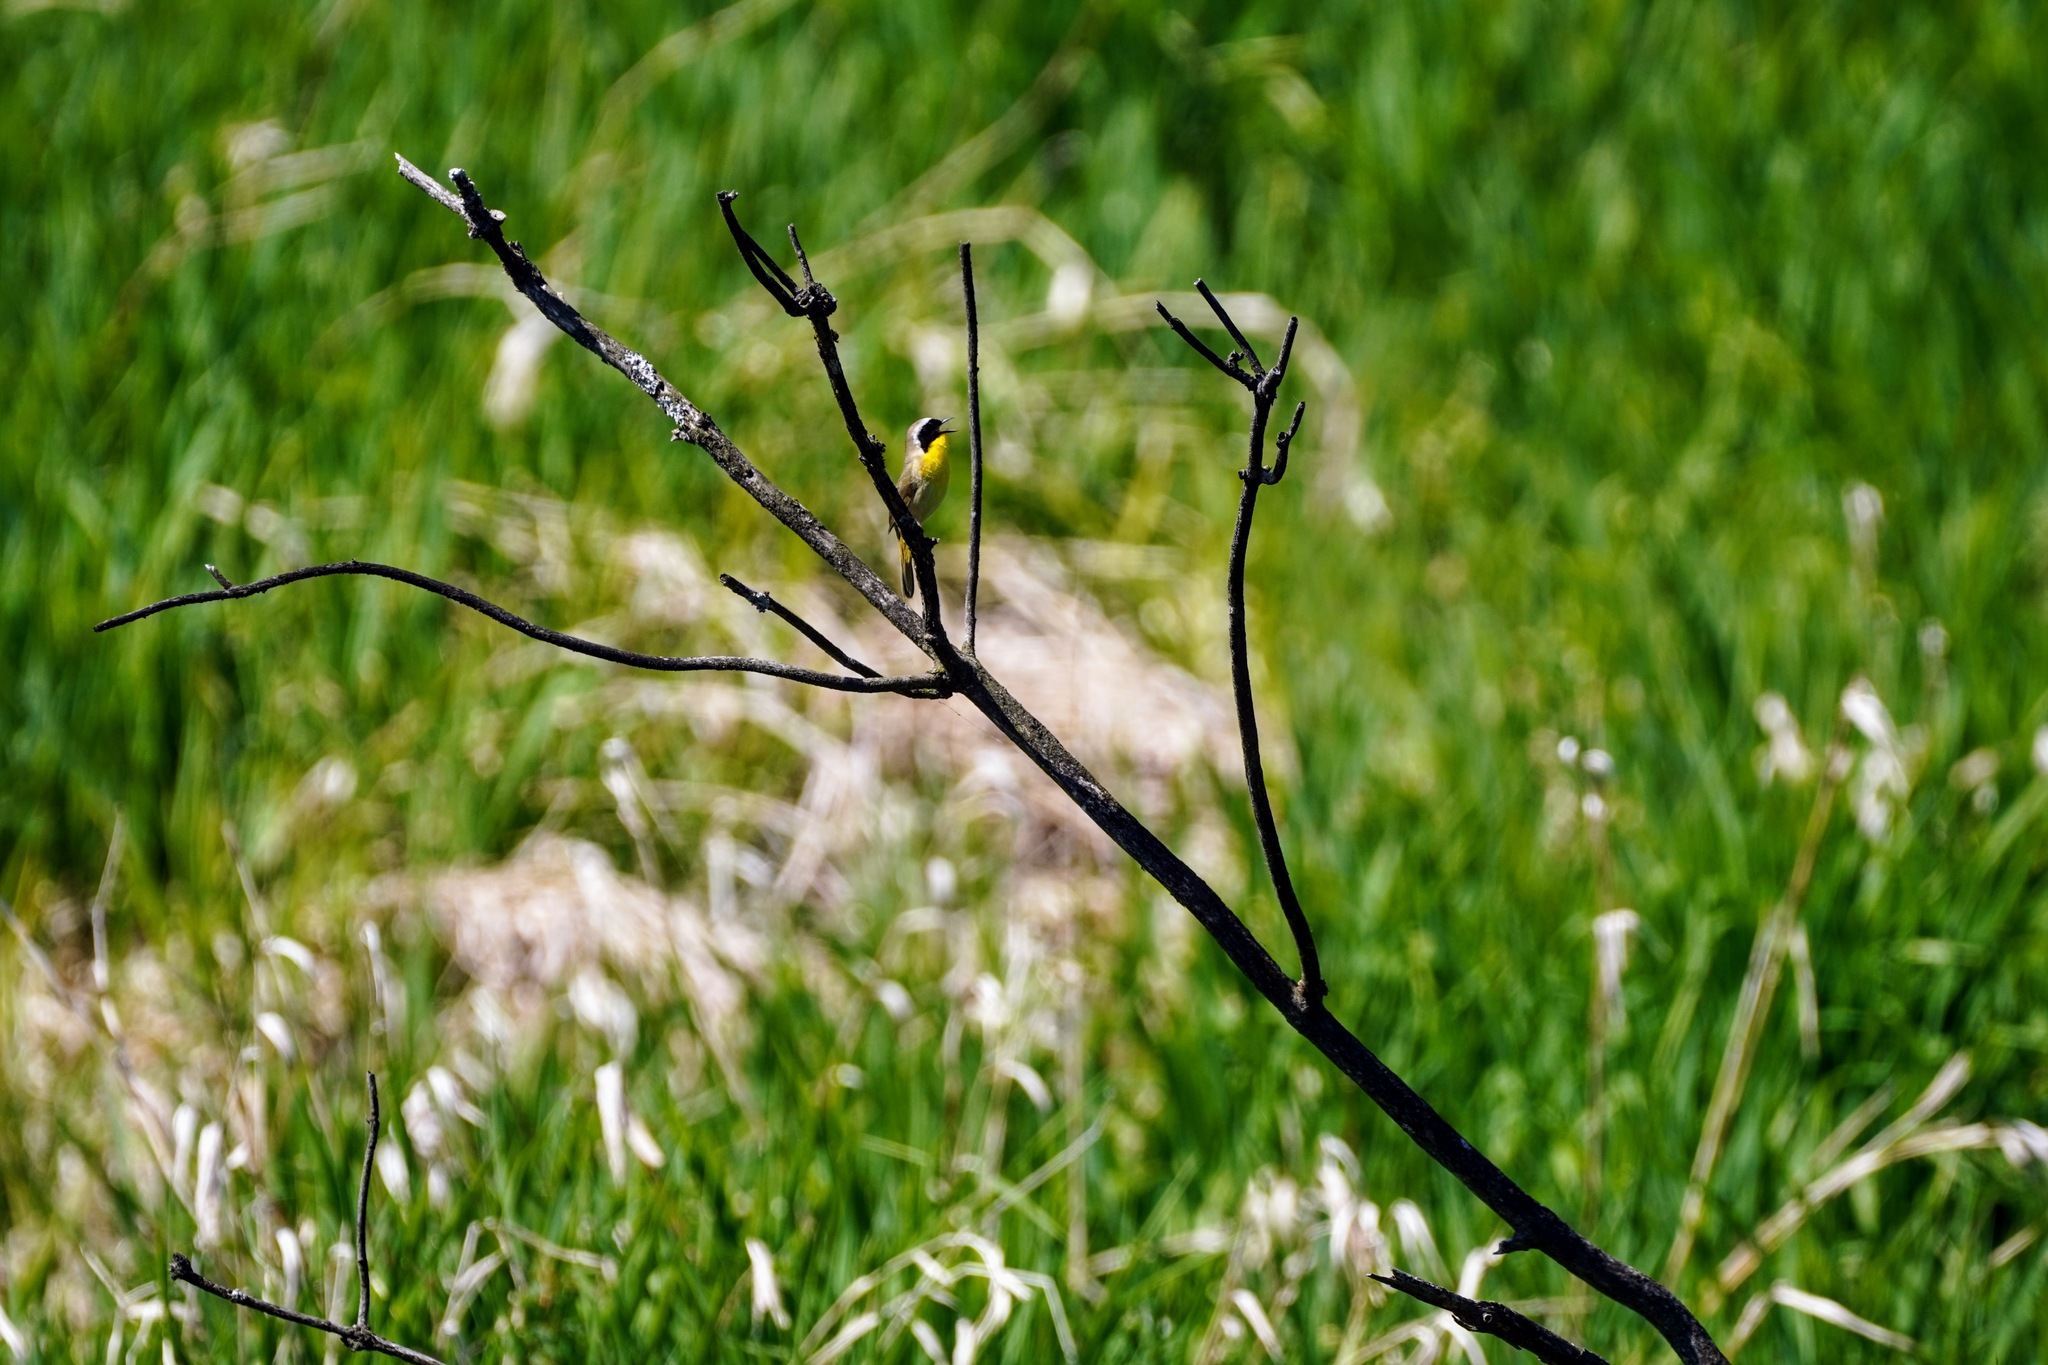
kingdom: Animalia
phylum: Chordata
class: Aves
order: Passeriformes
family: Parulidae
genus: Geothlypis
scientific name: Geothlypis trichas
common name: Common yellowthroat
